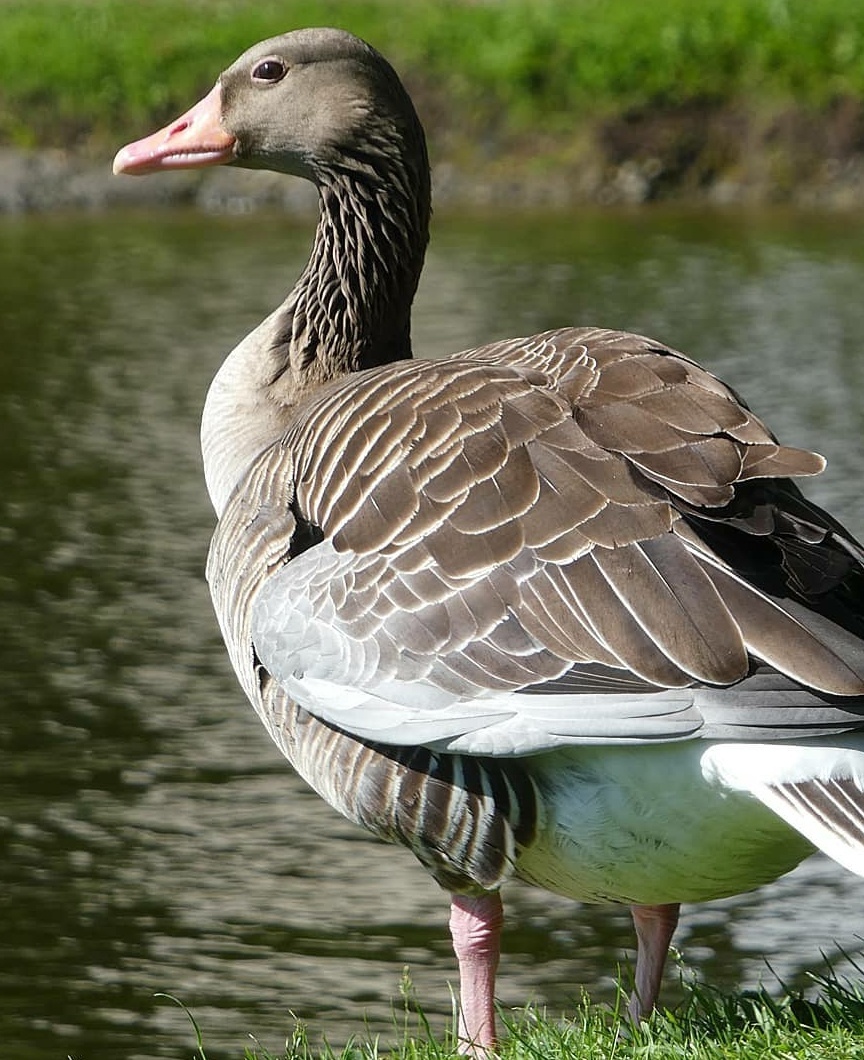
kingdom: Animalia
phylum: Chordata
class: Aves
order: Anseriformes
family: Anatidae
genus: Anser
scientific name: Anser anser
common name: Greylag goose
